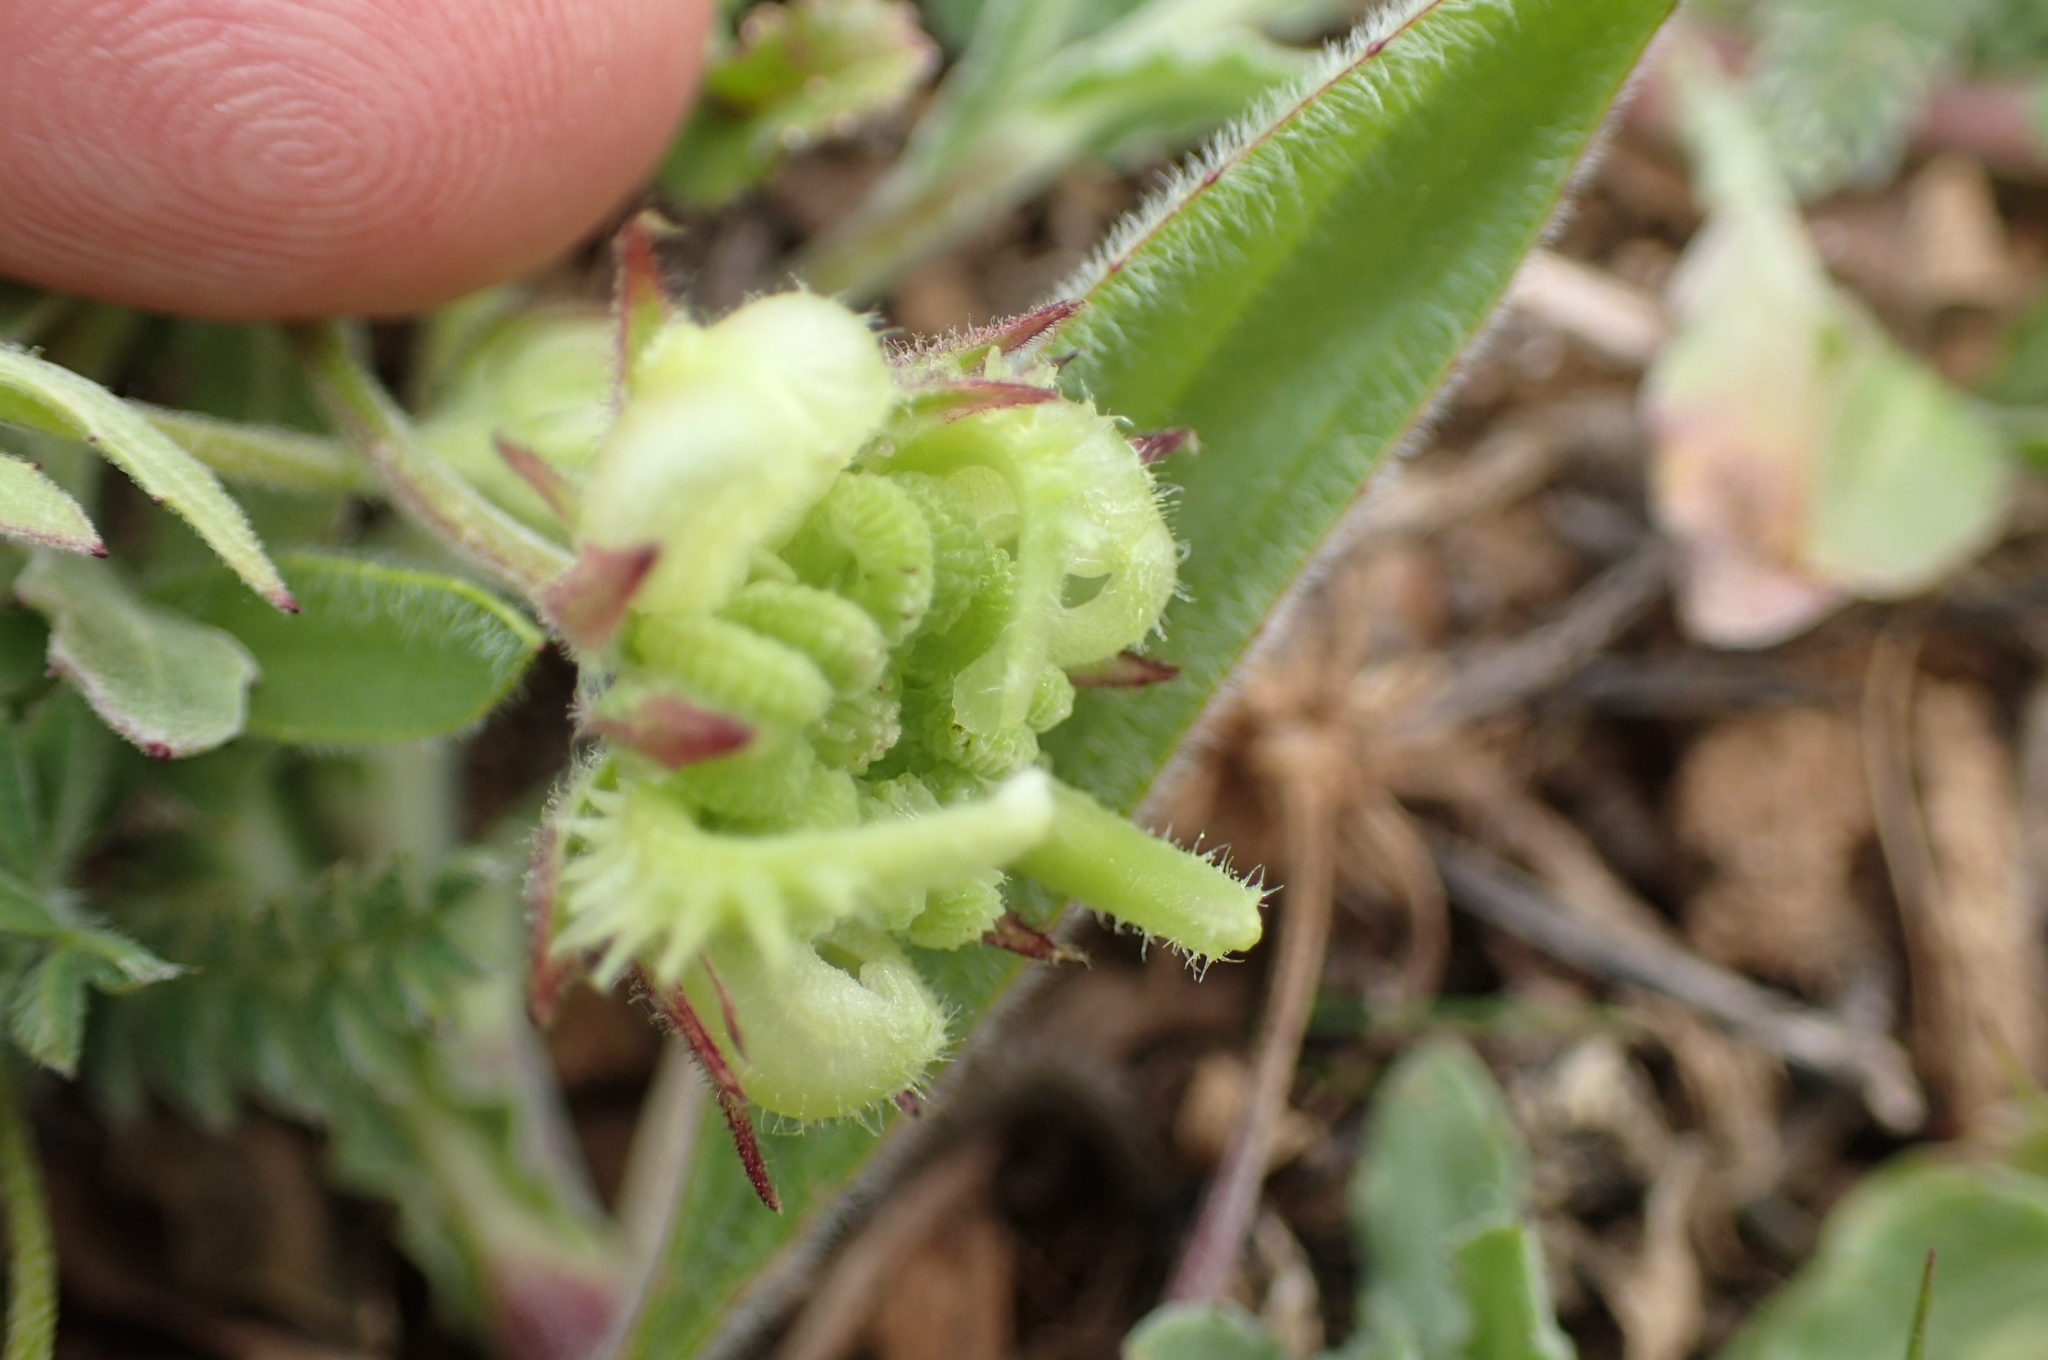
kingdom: Plantae
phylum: Tracheophyta
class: Magnoliopsida
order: Asterales
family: Asteraceae
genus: Calendula
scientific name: Calendula arvensis
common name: Field marigold
